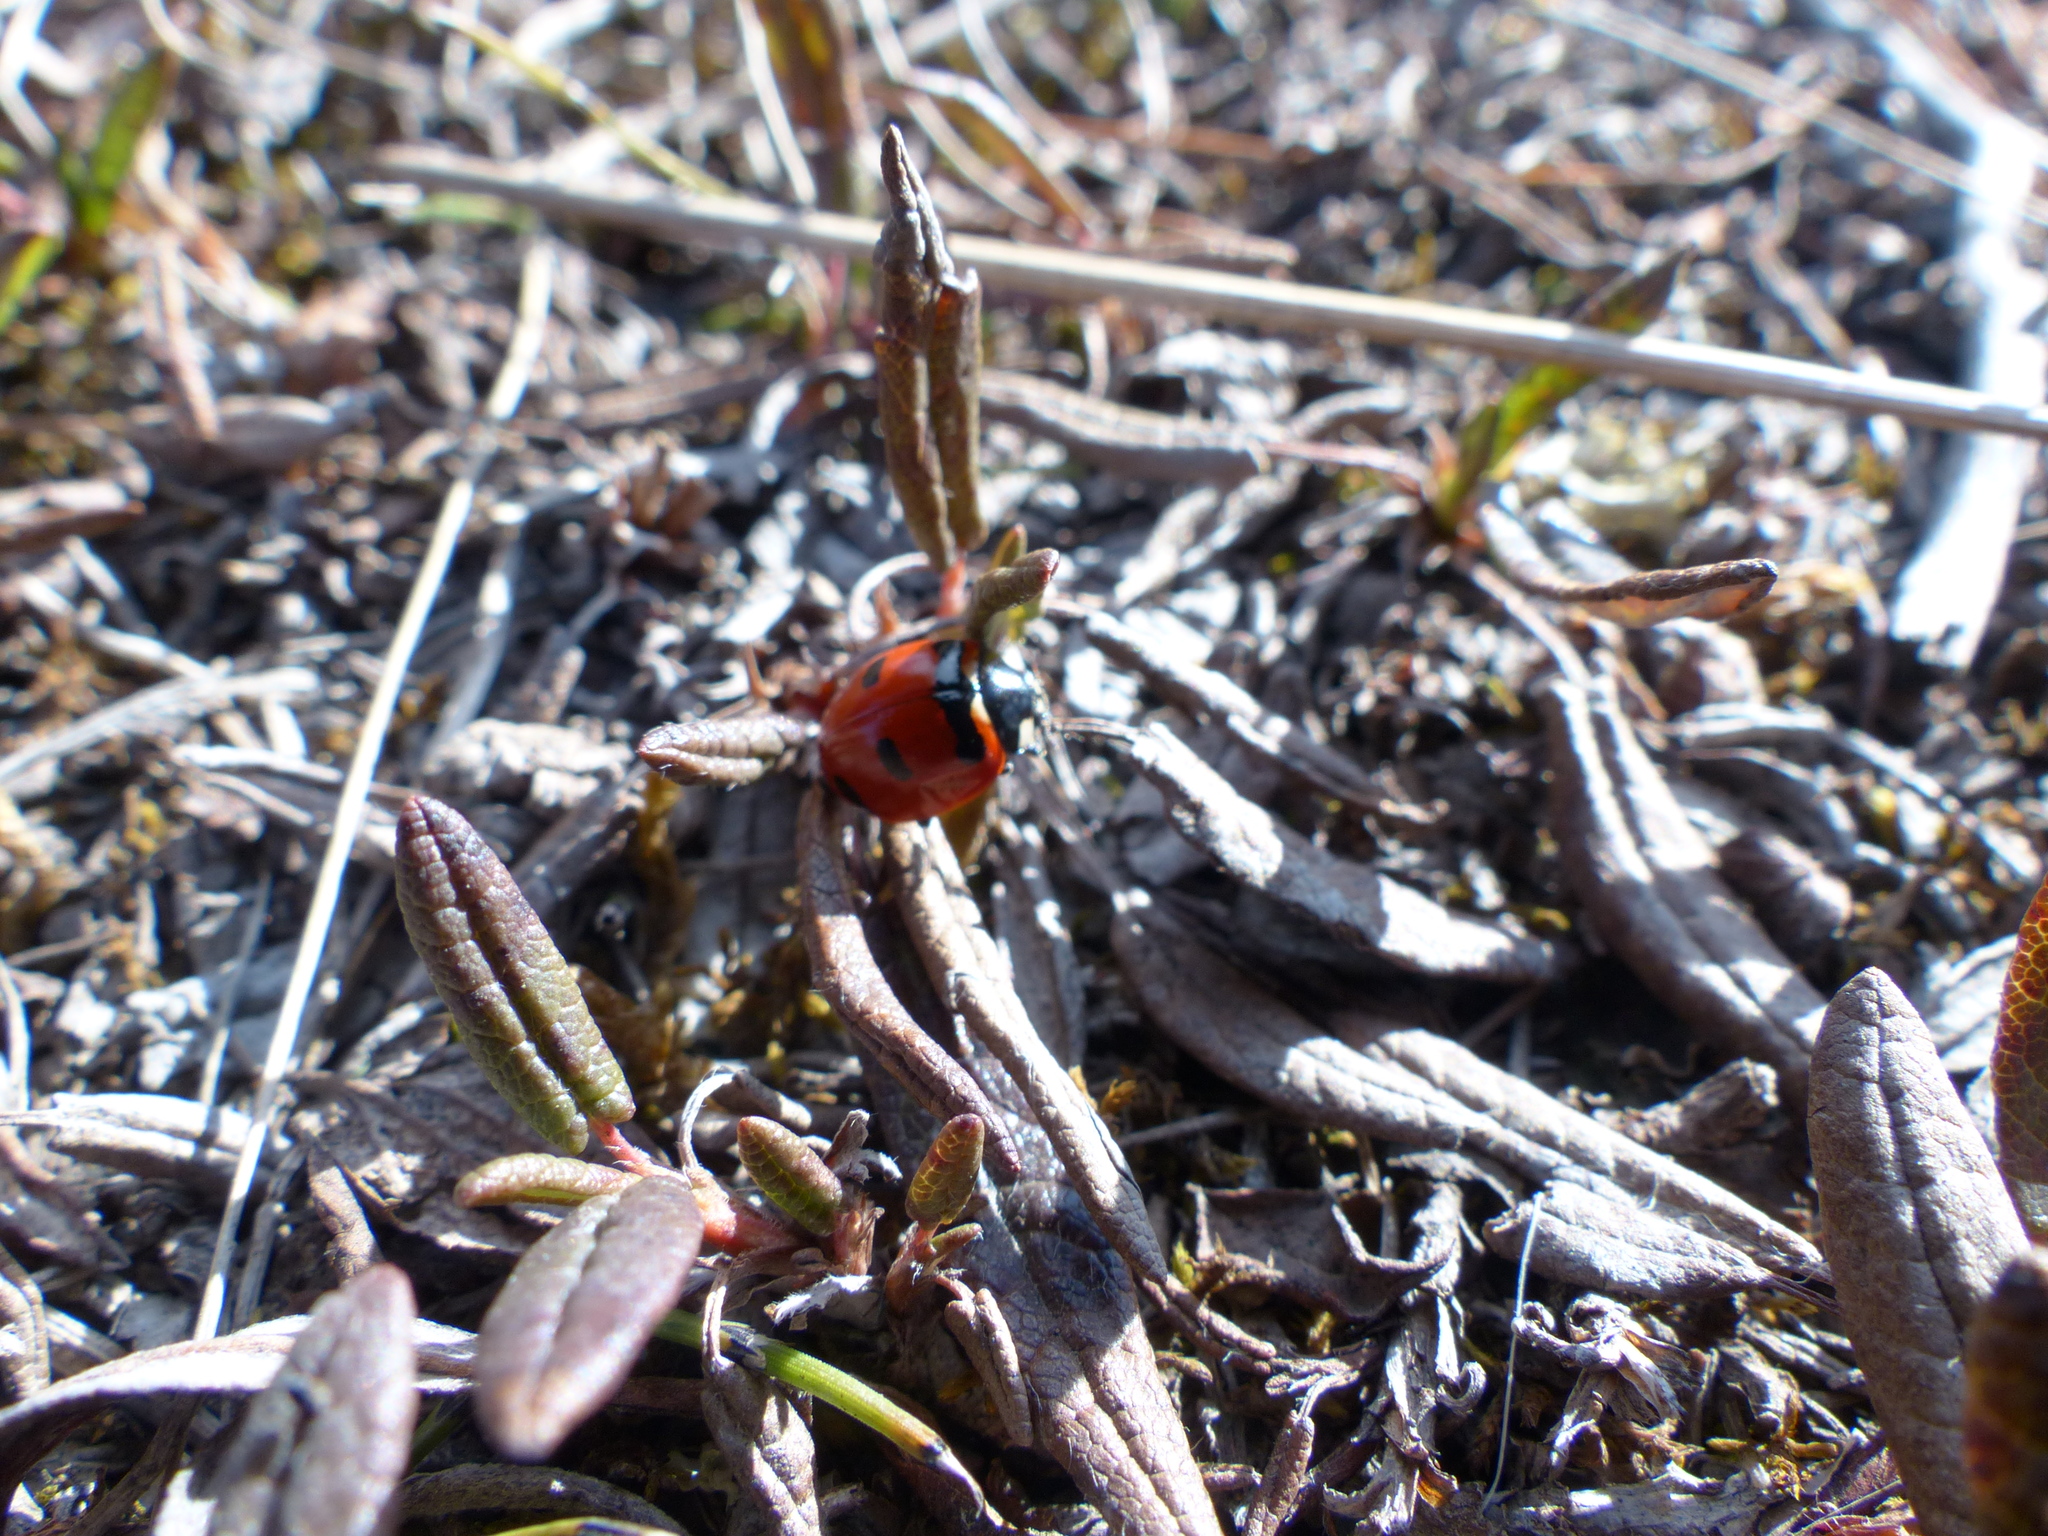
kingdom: Animalia
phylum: Arthropoda
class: Insecta
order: Coleoptera
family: Coccinellidae
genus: Coccinella
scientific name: Coccinella transversoguttata
